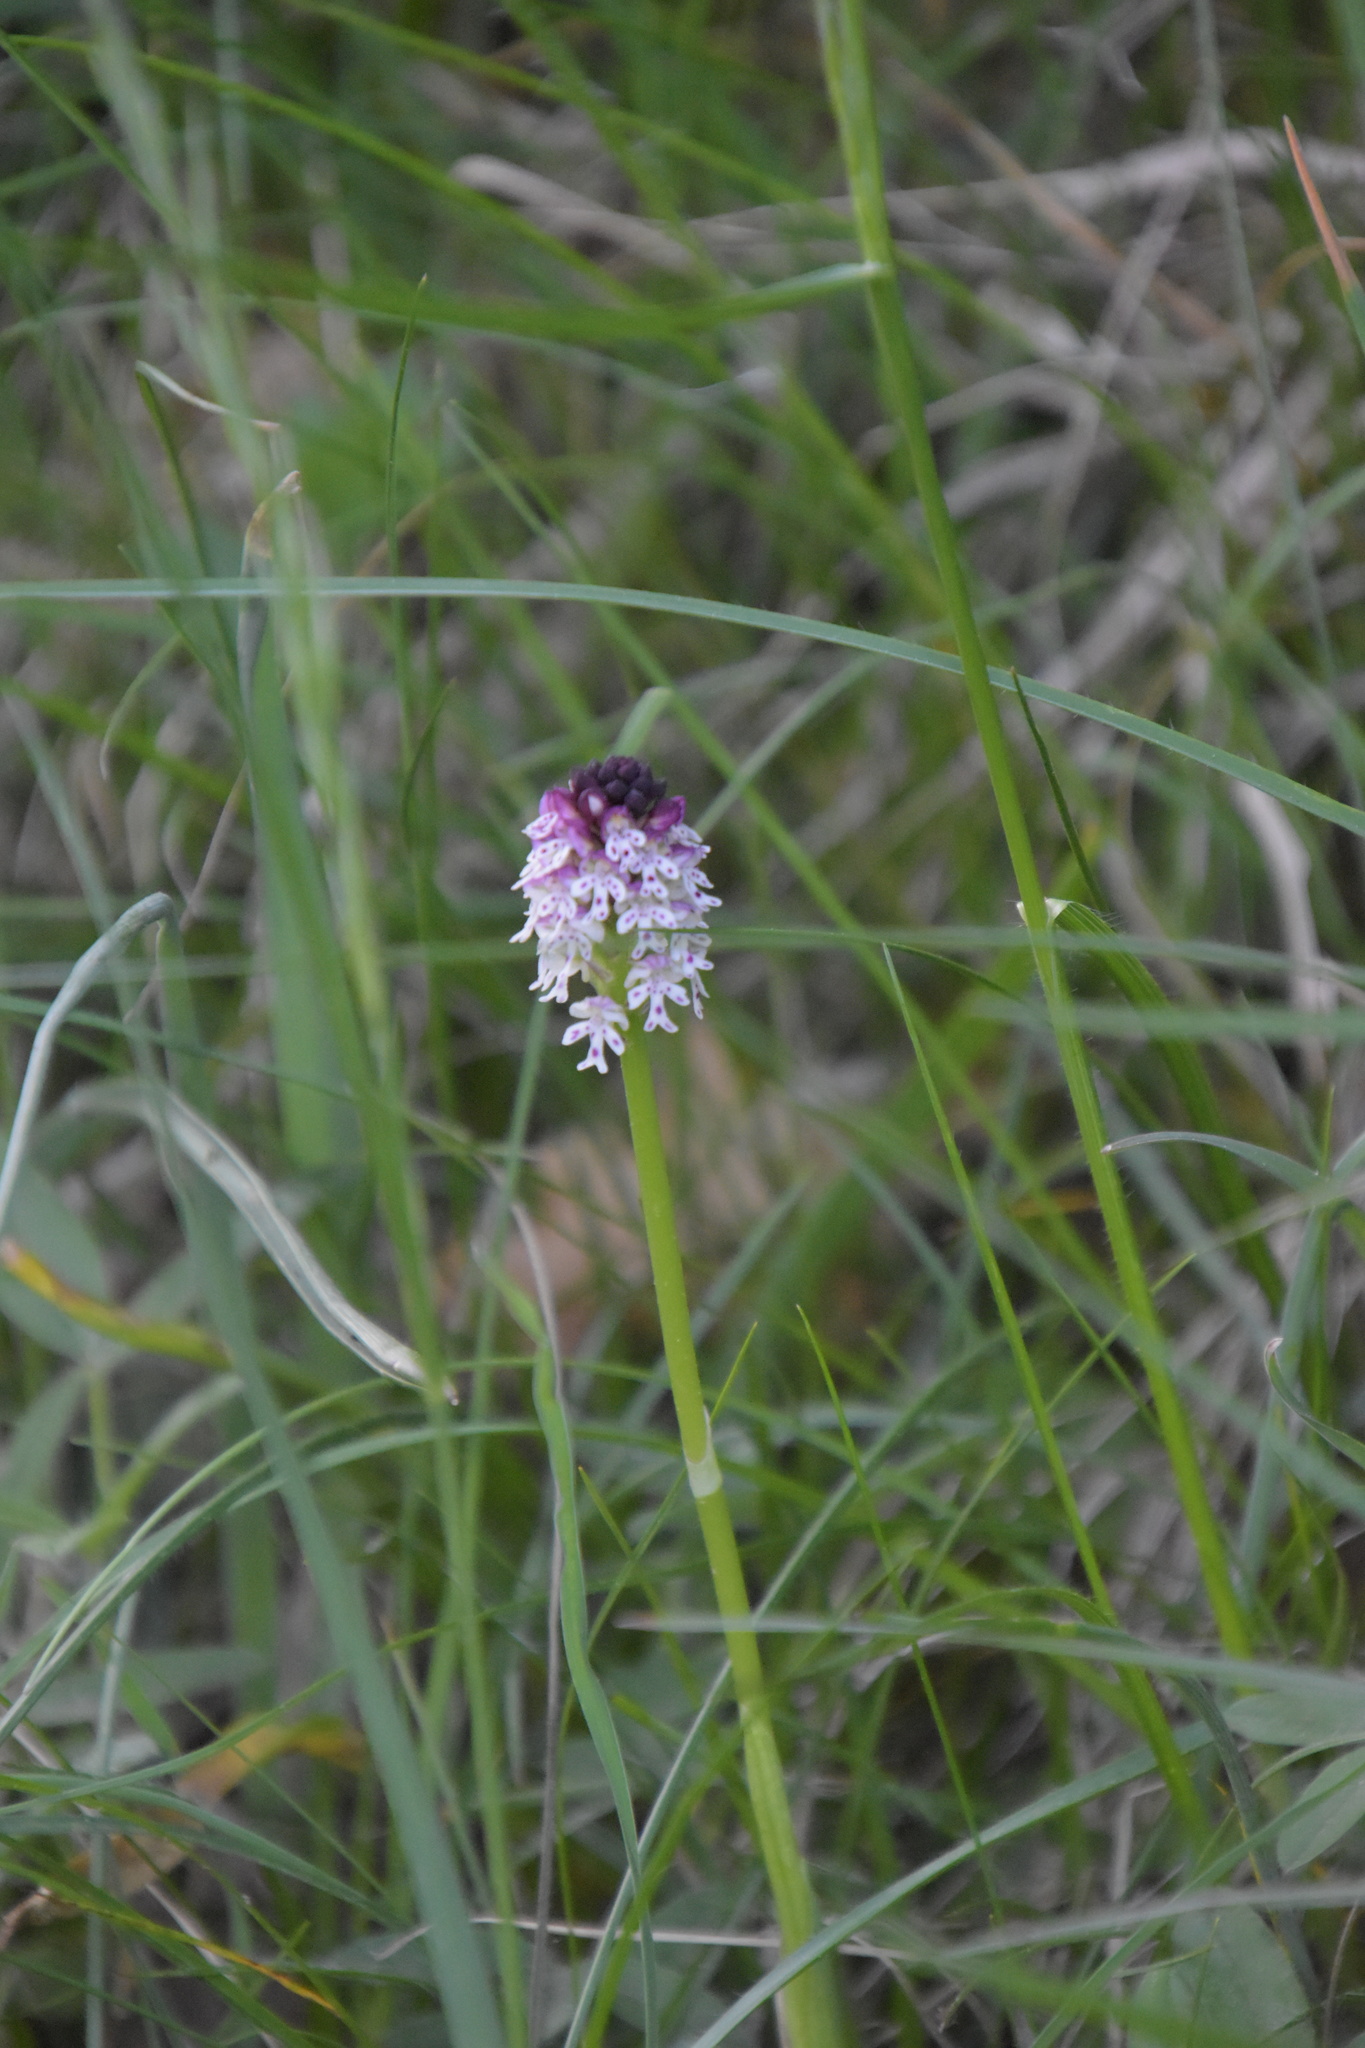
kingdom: Plantae
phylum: Tracheophyta
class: Liliopsida
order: Asparagales
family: Orchidaceae
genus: Neotinea
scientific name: Neotinea ustulata
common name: Burnt orchid
